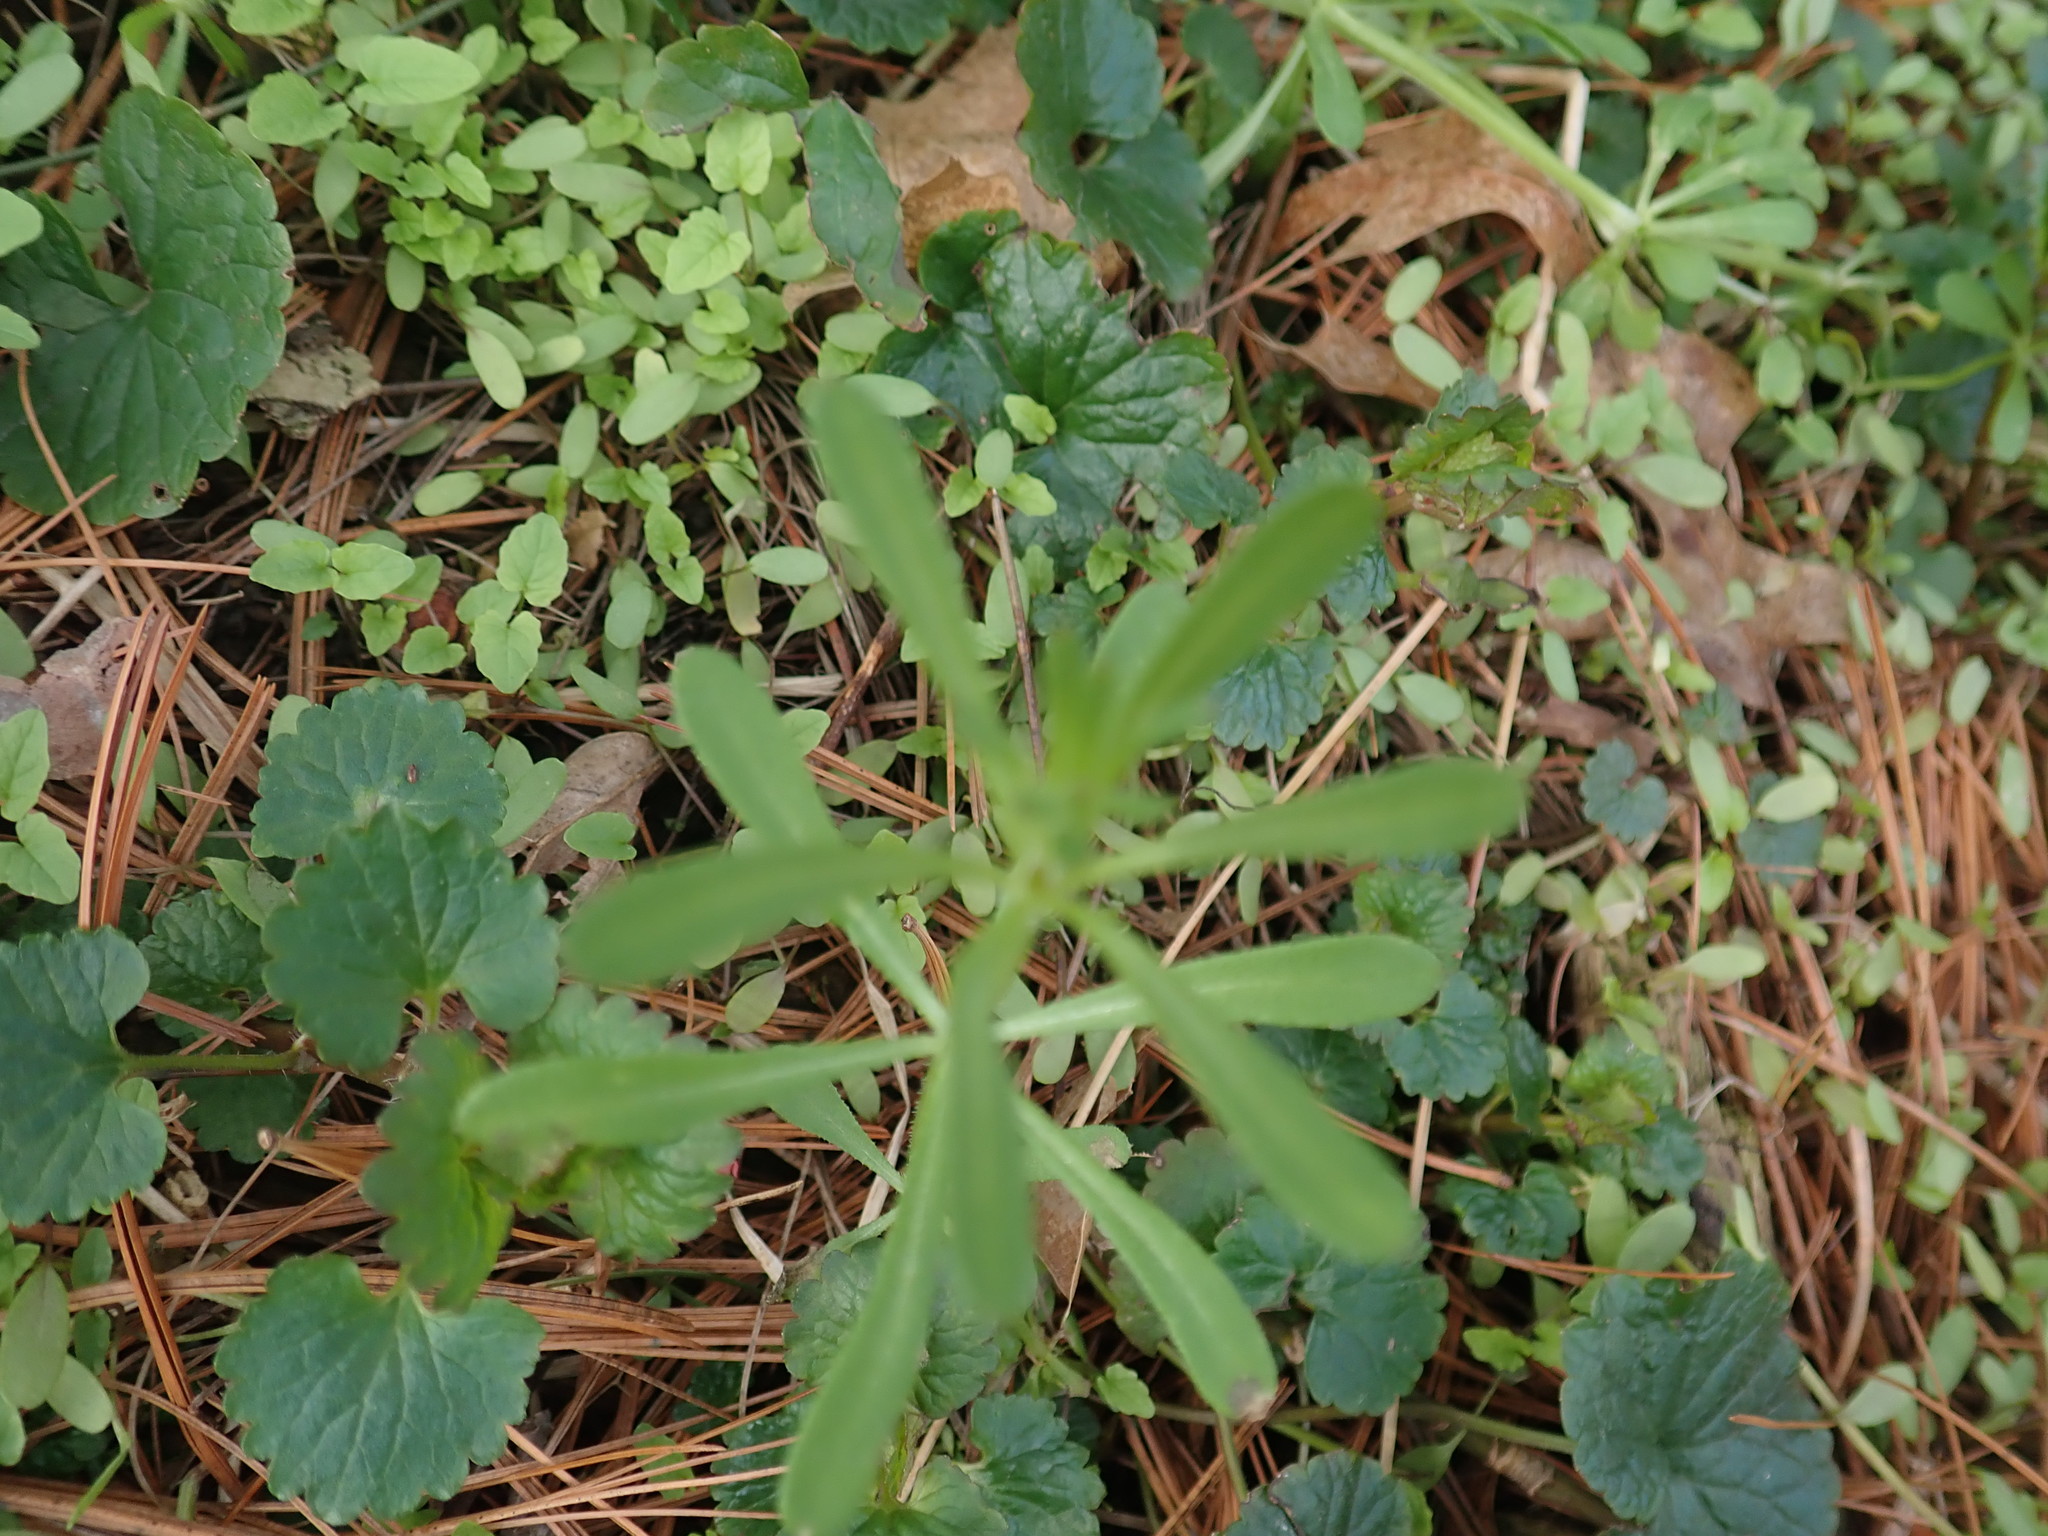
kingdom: Plantae
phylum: Tracheophyta
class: Magnoliopsida
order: Gentianales
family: Rubiaceae
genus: Galium
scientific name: Galium aparine
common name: Cleavers
